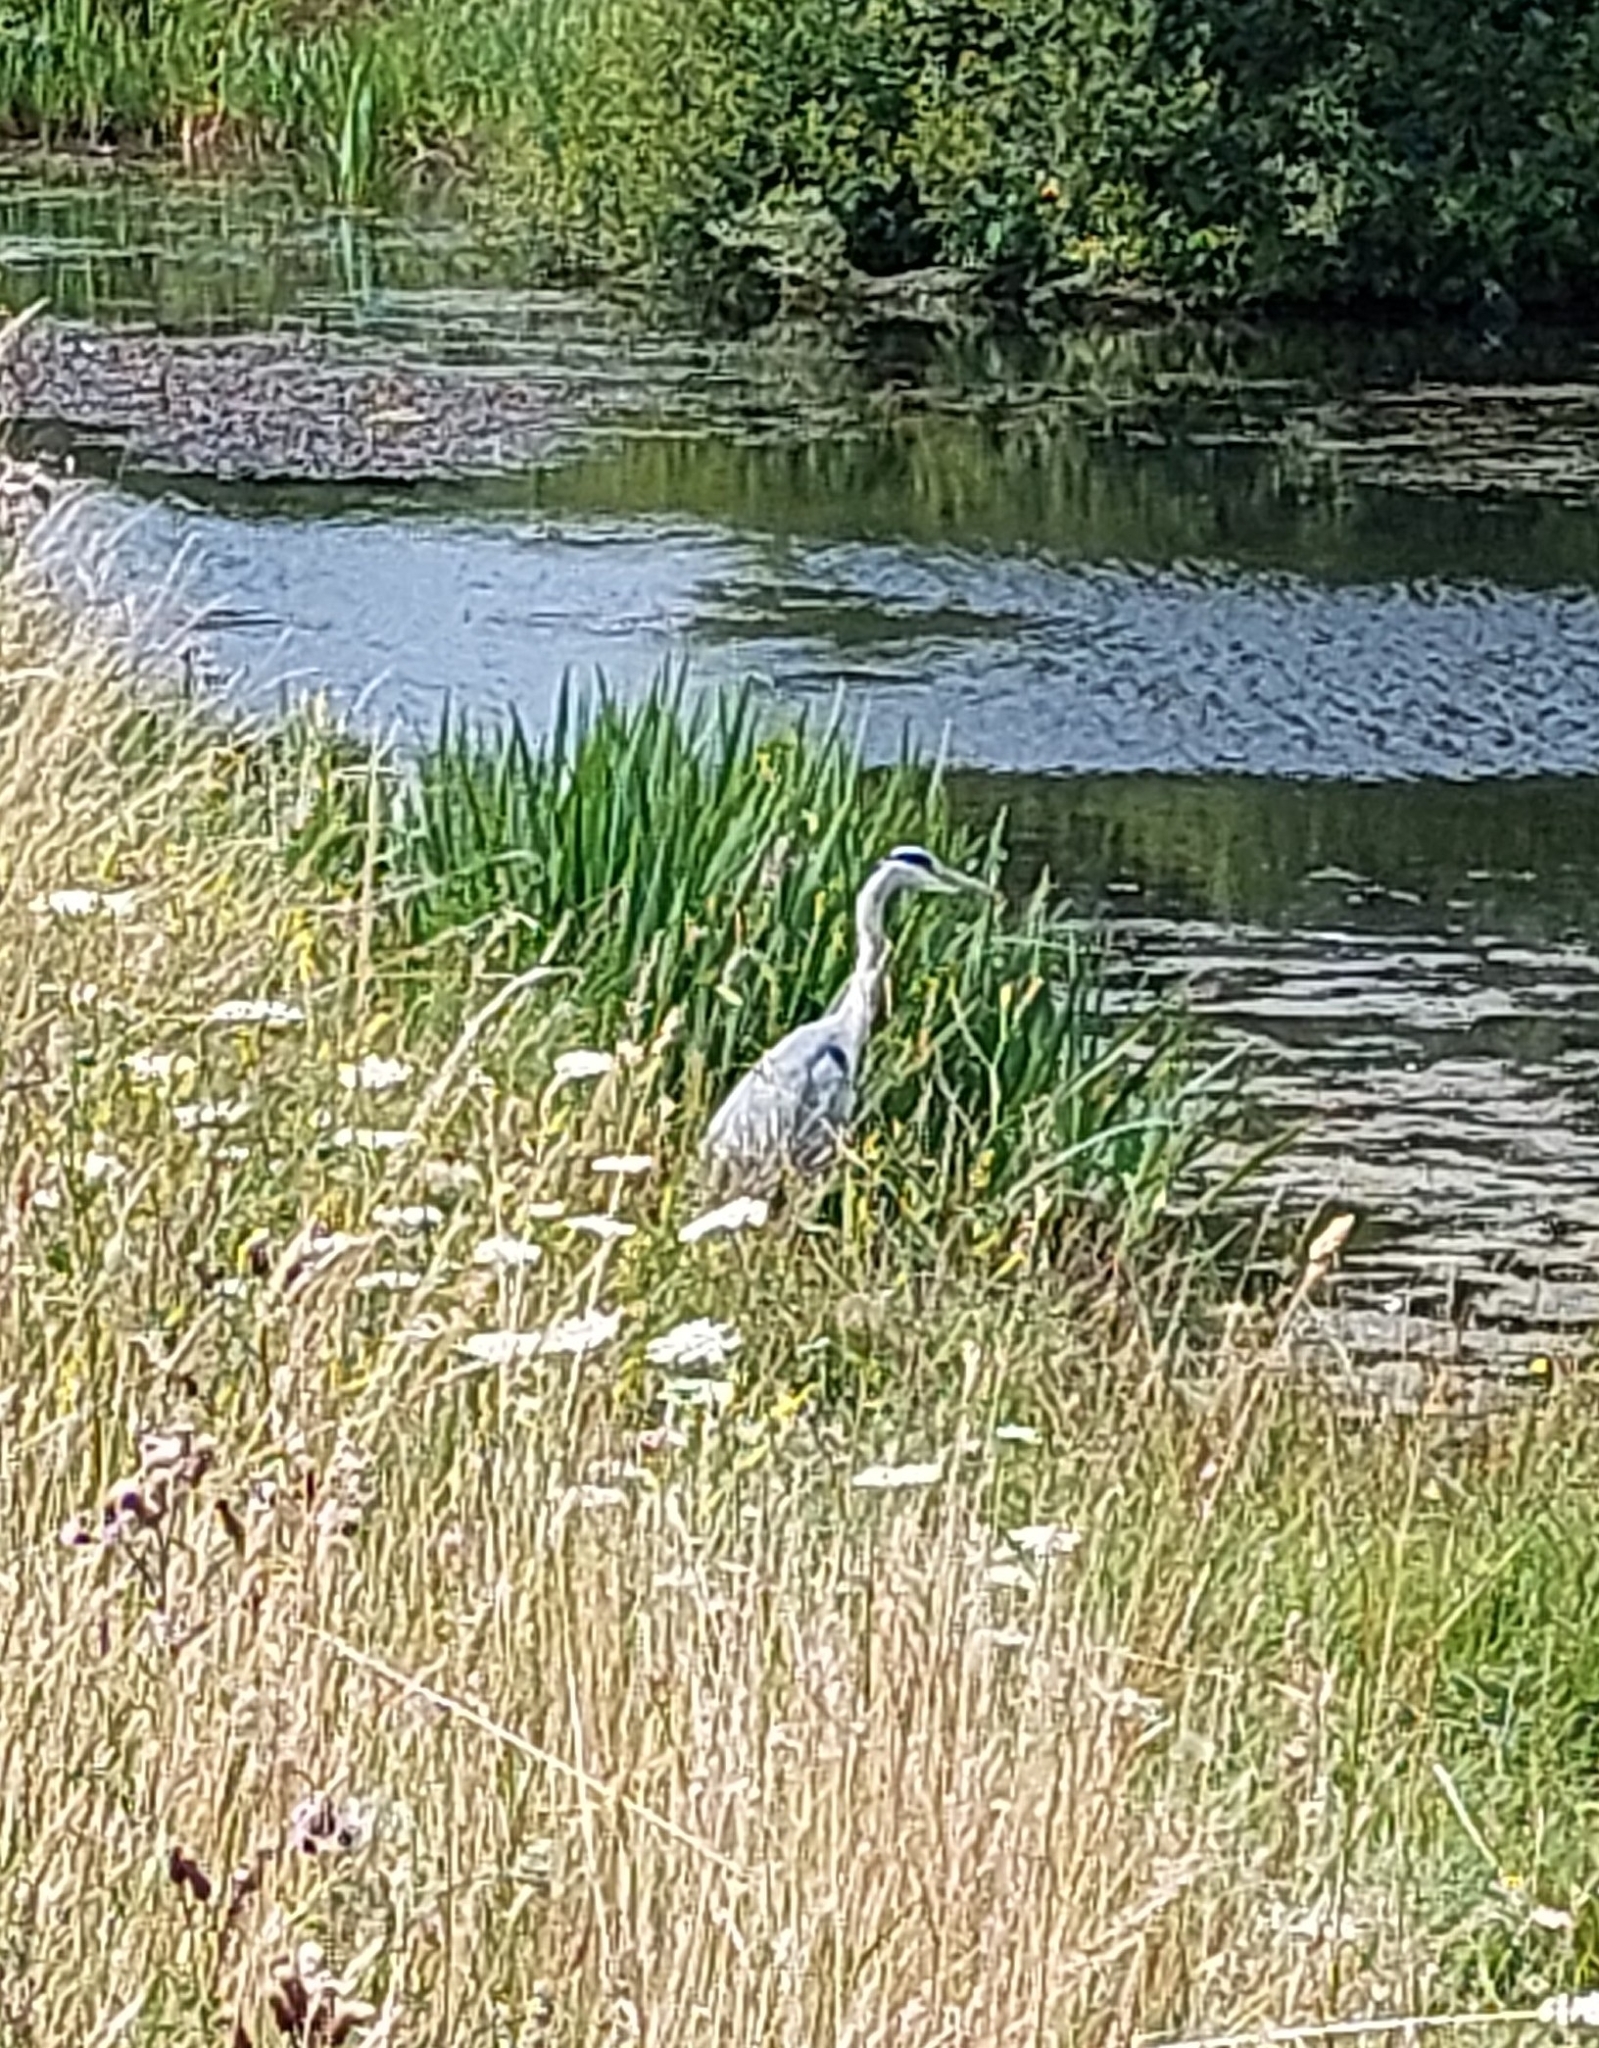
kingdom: Animalia
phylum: Chordata
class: Aves
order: Pelecaniformes
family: Ardeidae
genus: Ardea
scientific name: Ardea cinerea
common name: Grey heron
